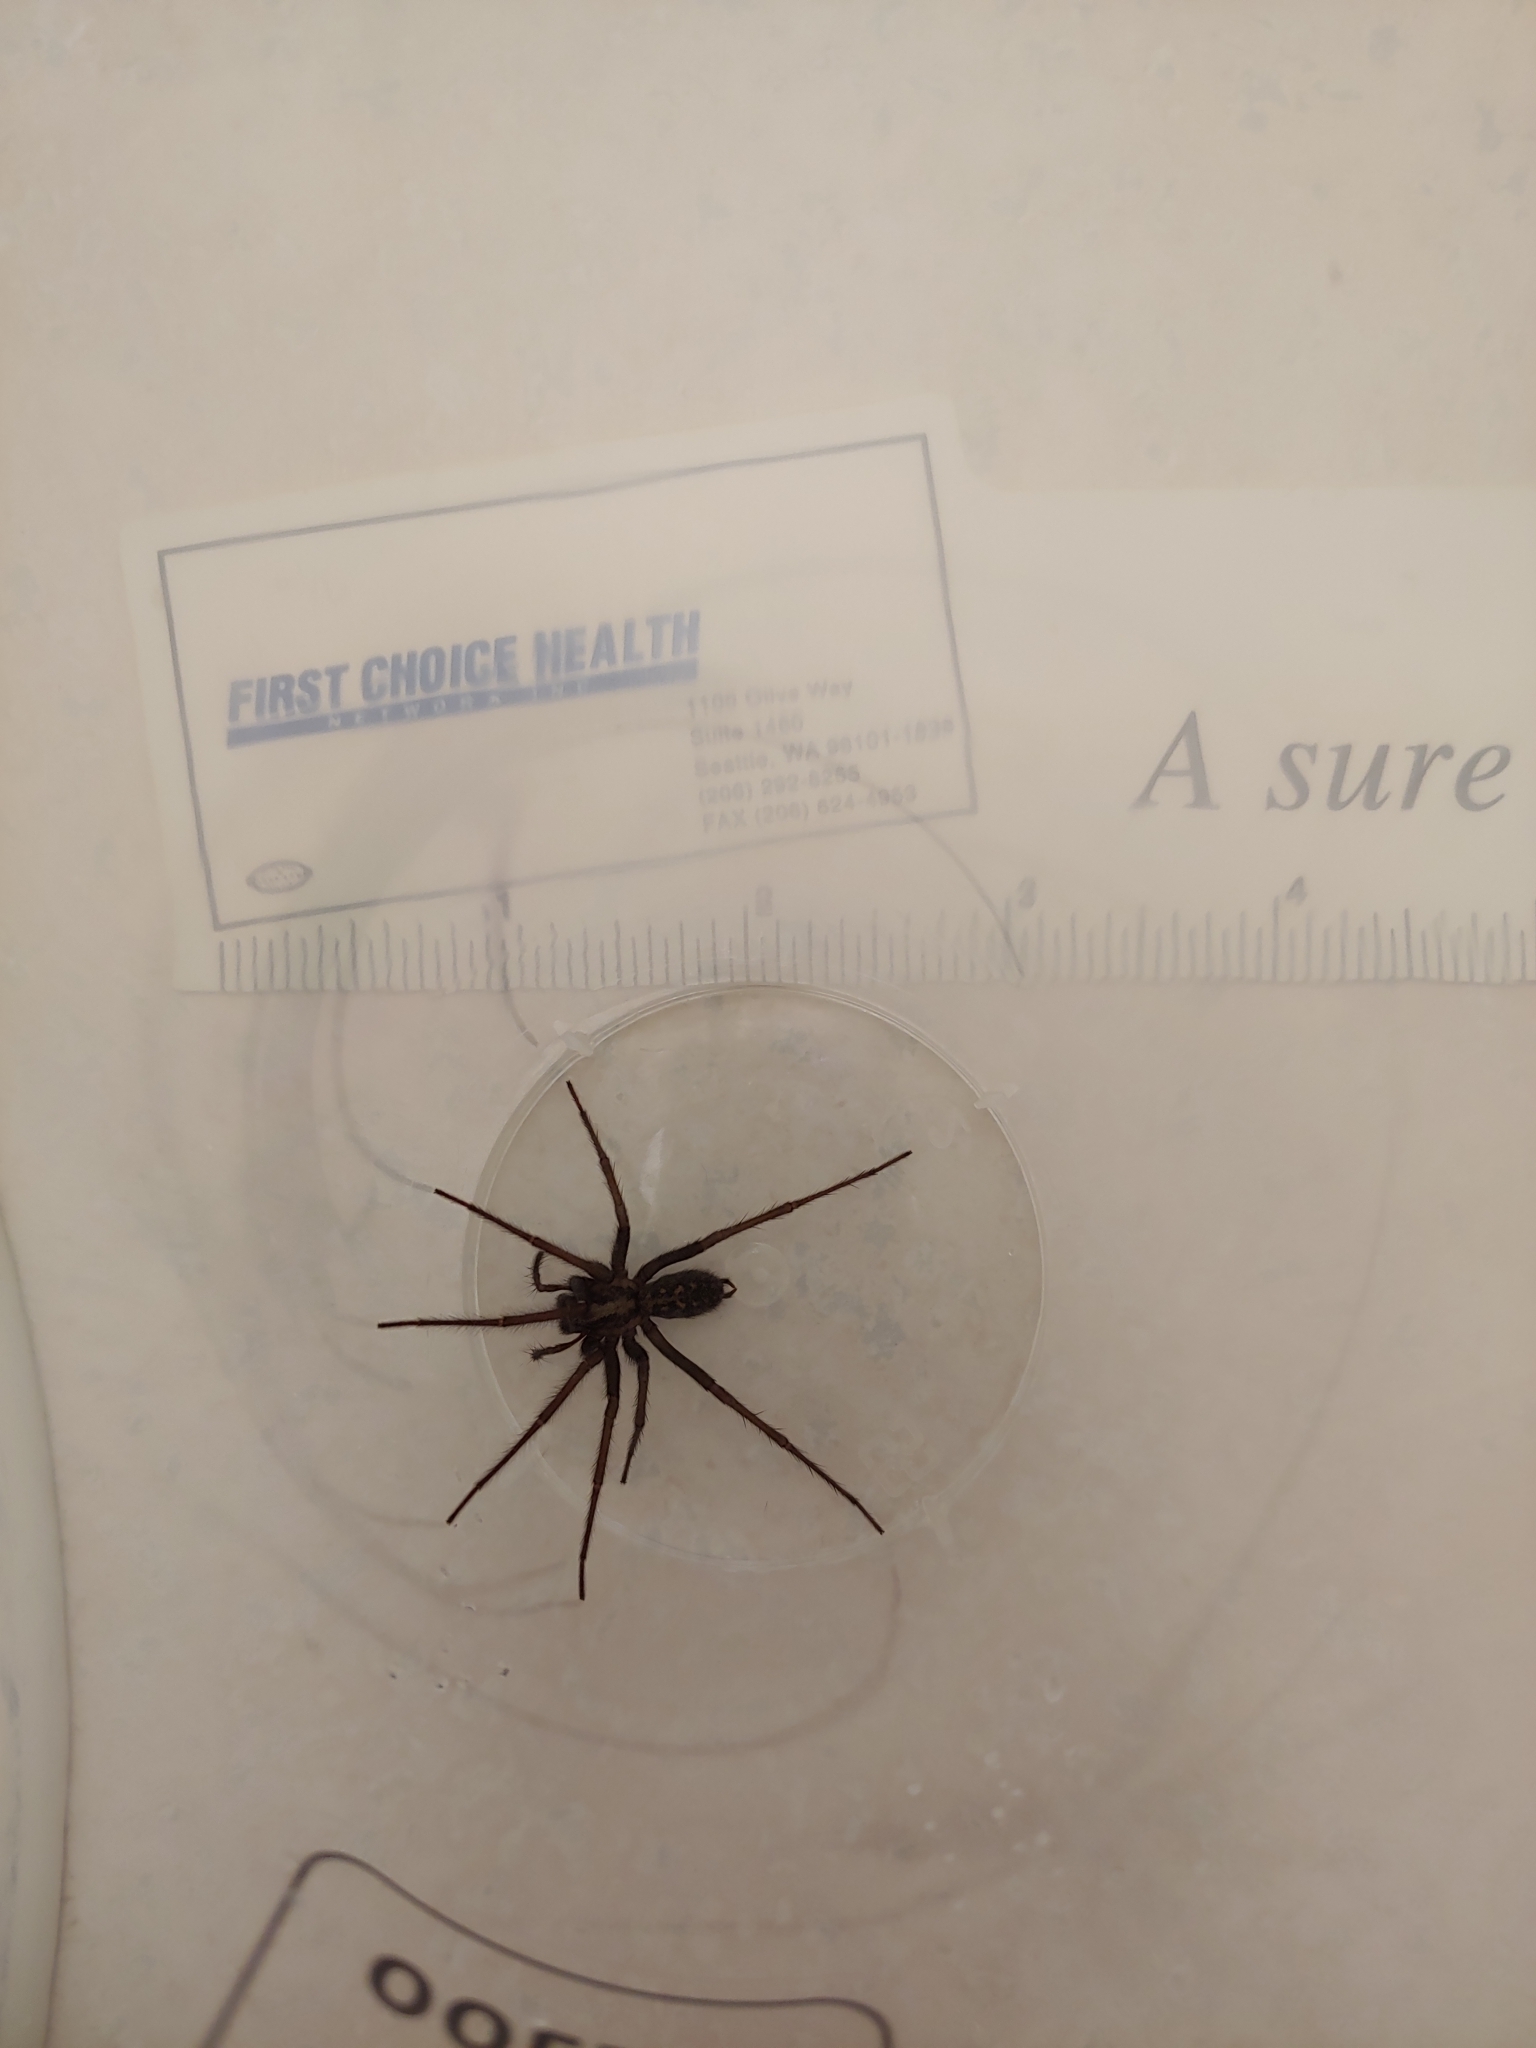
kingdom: Animalia
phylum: Arthropoda
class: Arachnida
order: Araneae
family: Agelenidae
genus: Eratigena
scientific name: Eratigena duellica
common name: Giant house spider
